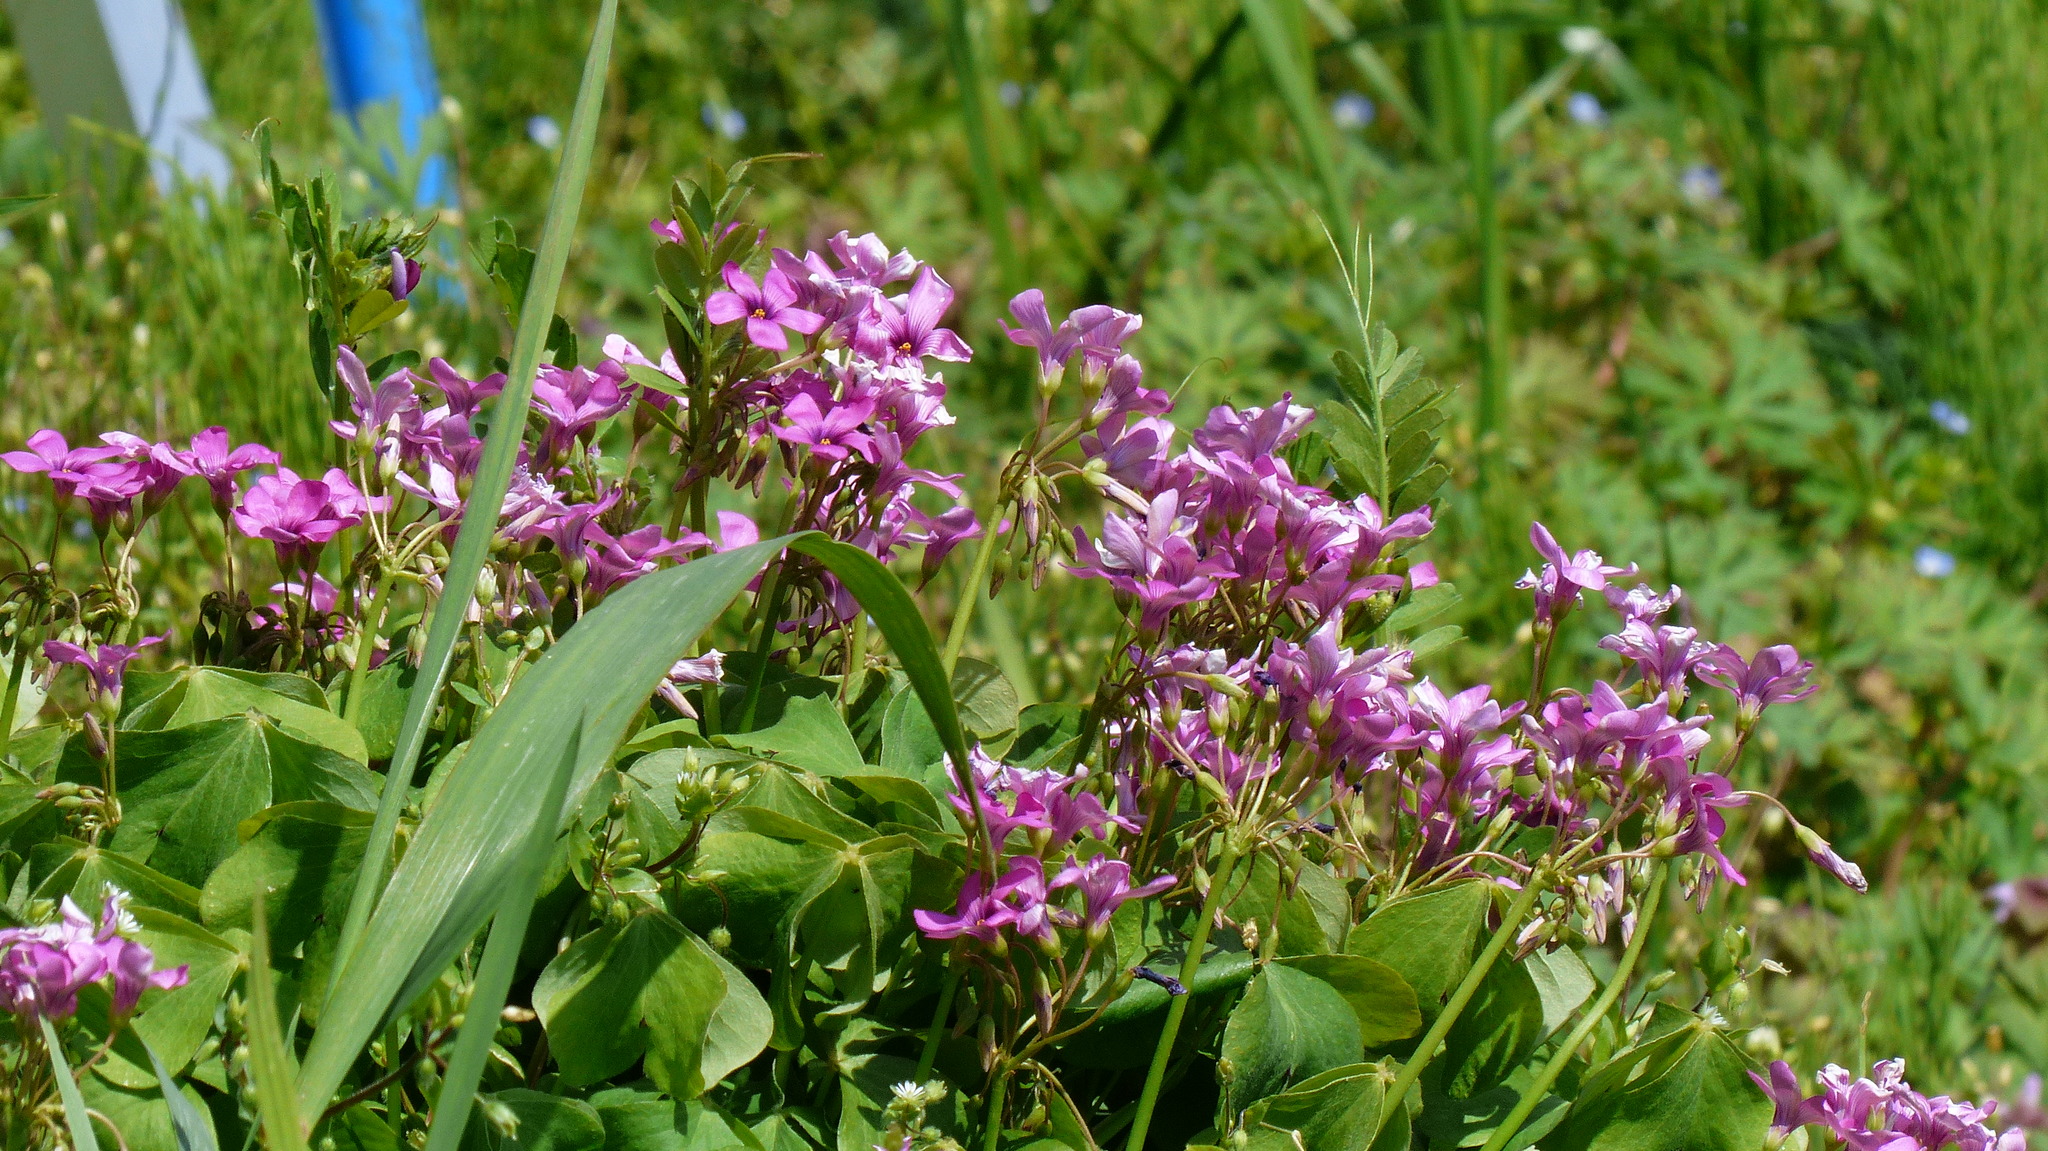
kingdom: Plantae
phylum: Tracheophyta
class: Magnoliopsida
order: Oxalidales
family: Oxalidaceae
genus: Oxalis
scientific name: Oxalis articulata
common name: Pink-sorrel
